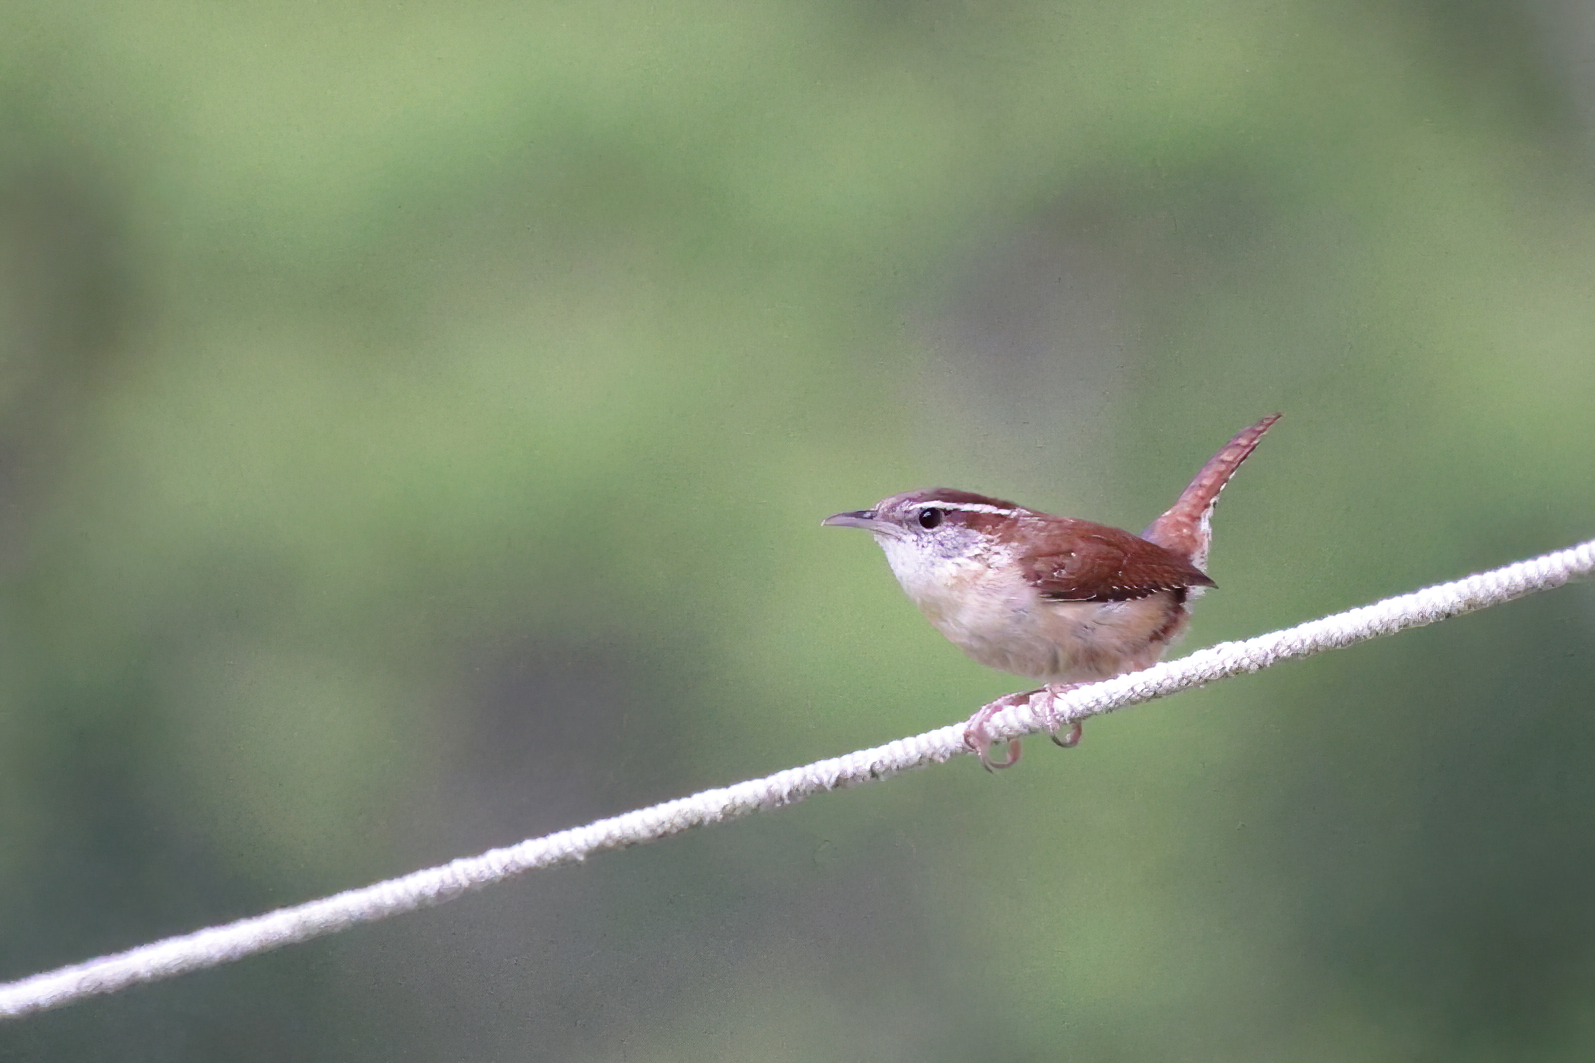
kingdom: Animalia
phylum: Chordata
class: Aves
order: Passeriformes
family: Troglodytidae
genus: Thryothorus
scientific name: Thryothorus ludovicianus
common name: Carolina wren
